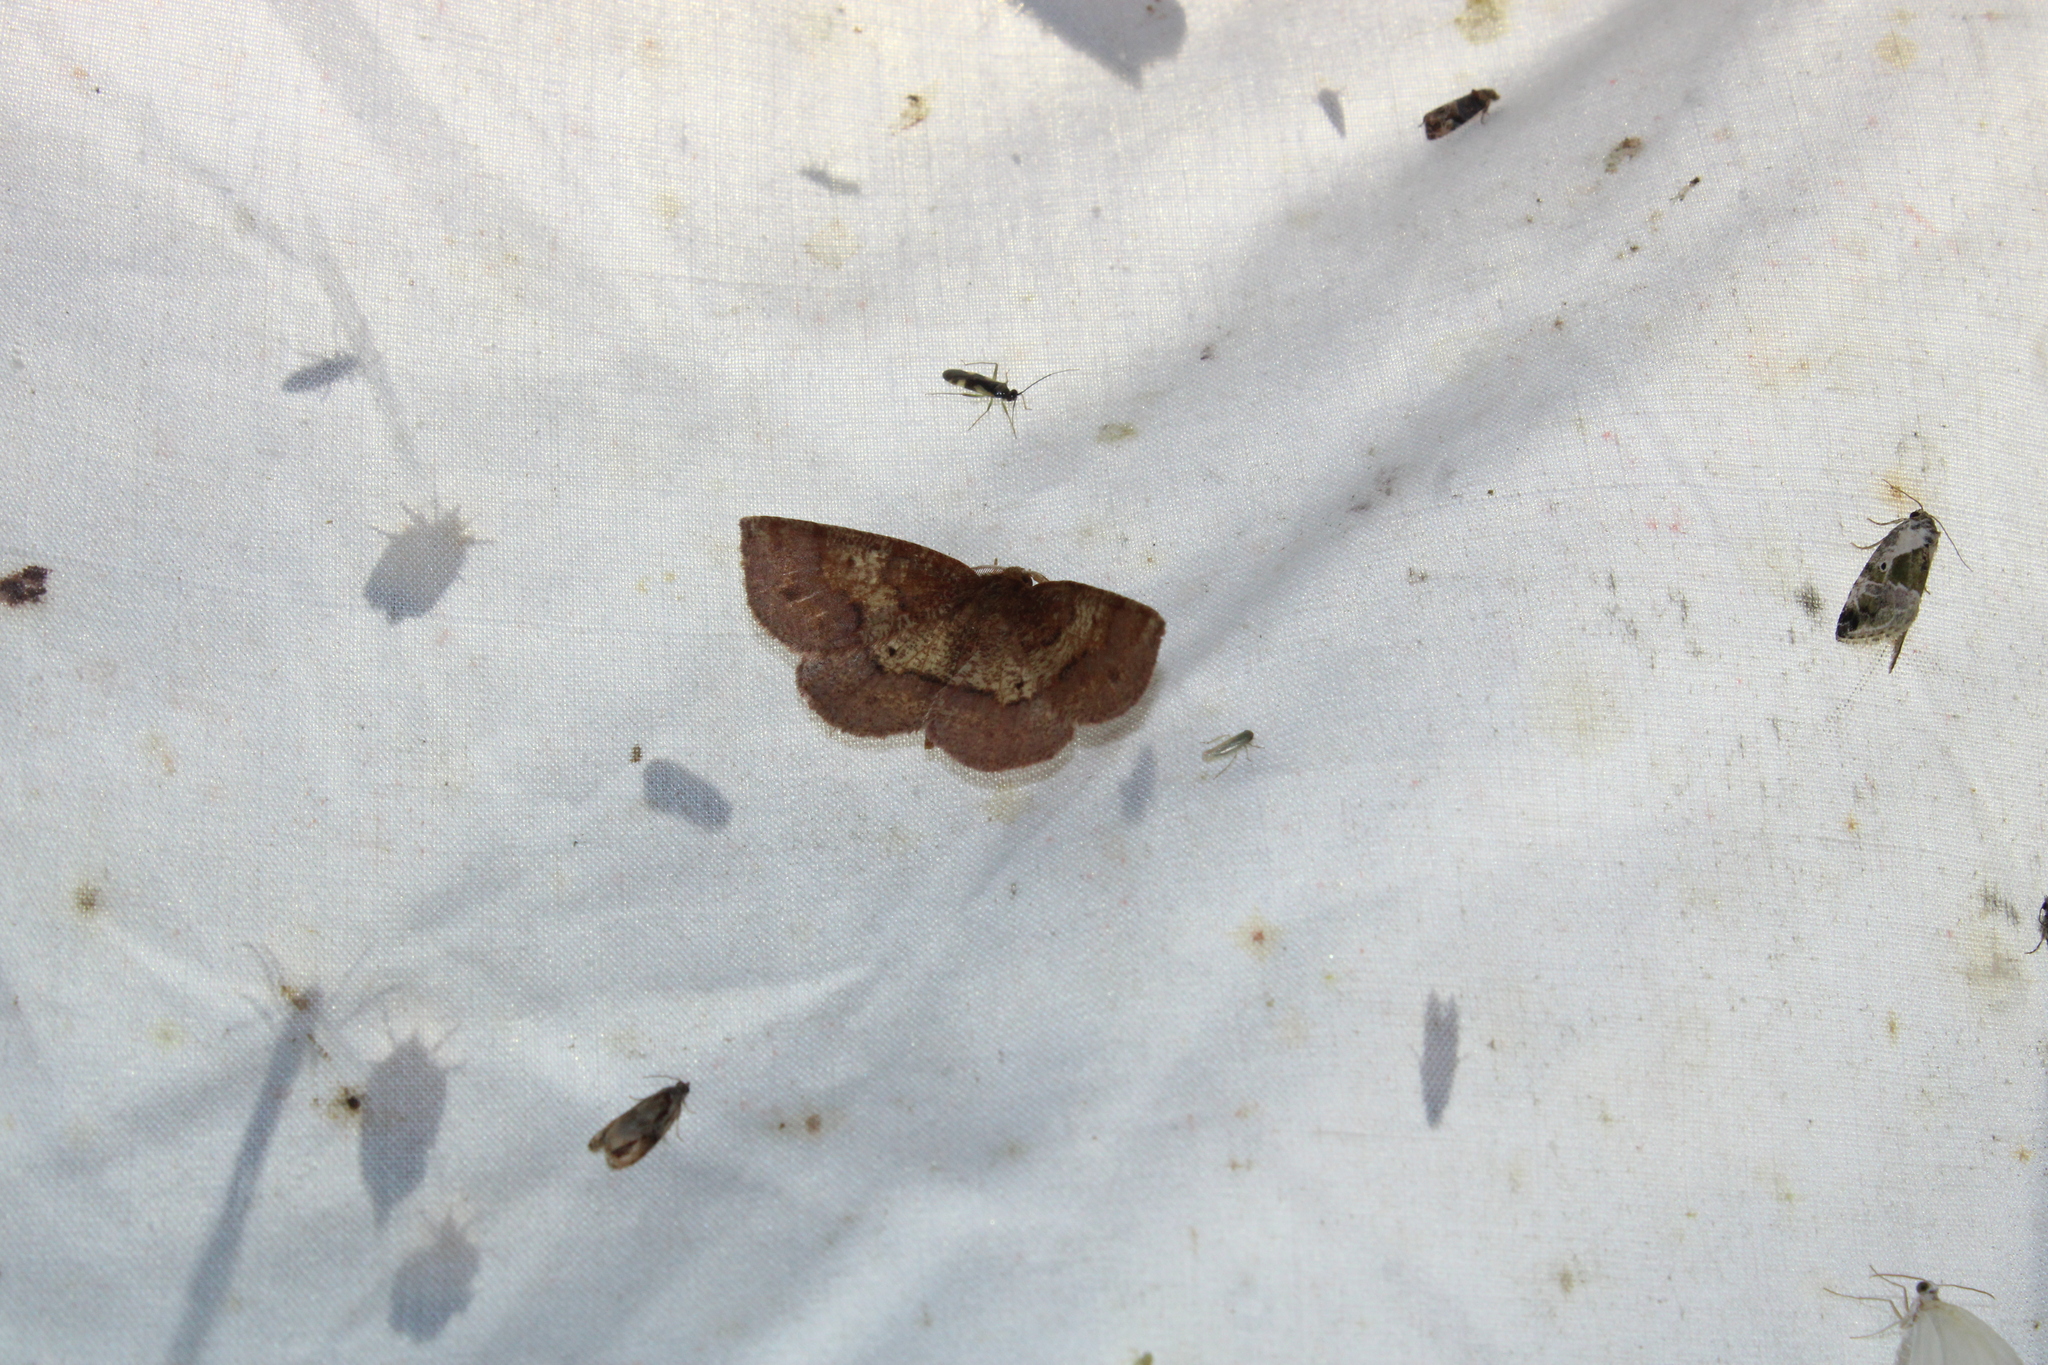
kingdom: Animalia
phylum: Arthropoda
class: Insecta
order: Lepidoptera
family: Geometridae
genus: Metarranthis
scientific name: Metarranthis angularia
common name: Angled metarranthis moth
